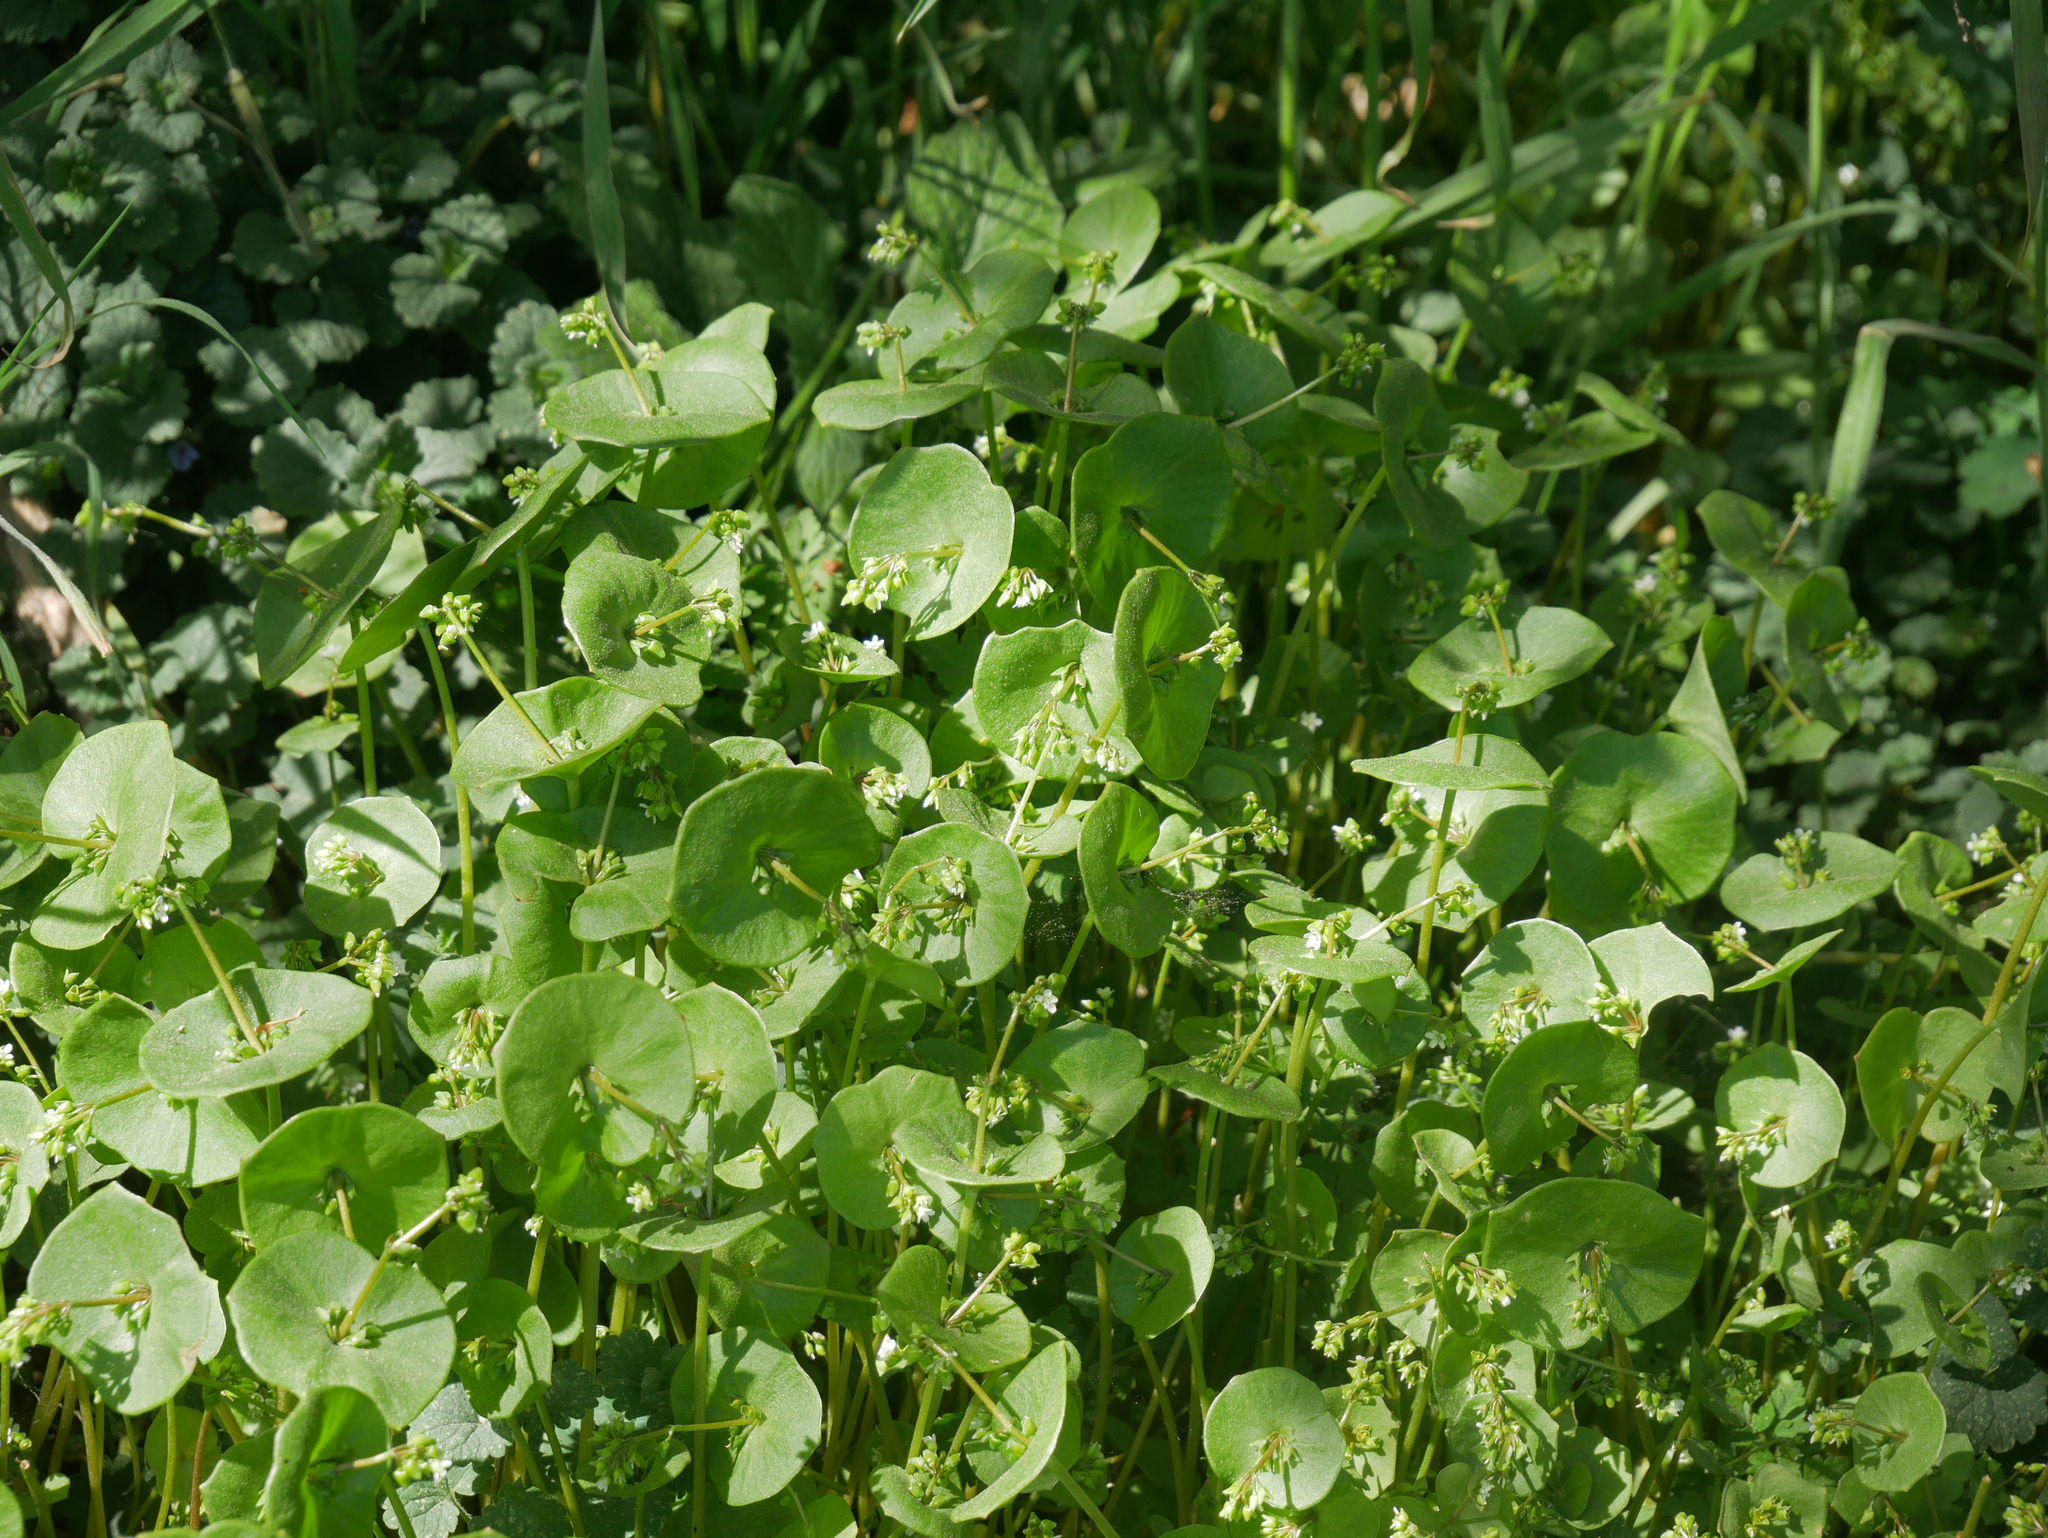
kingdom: Plantae
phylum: Tracheophyta
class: Magnoliopsida
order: Caryophyllales
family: Montiaceae
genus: Claytonia
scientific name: Claytonia perfoliata
